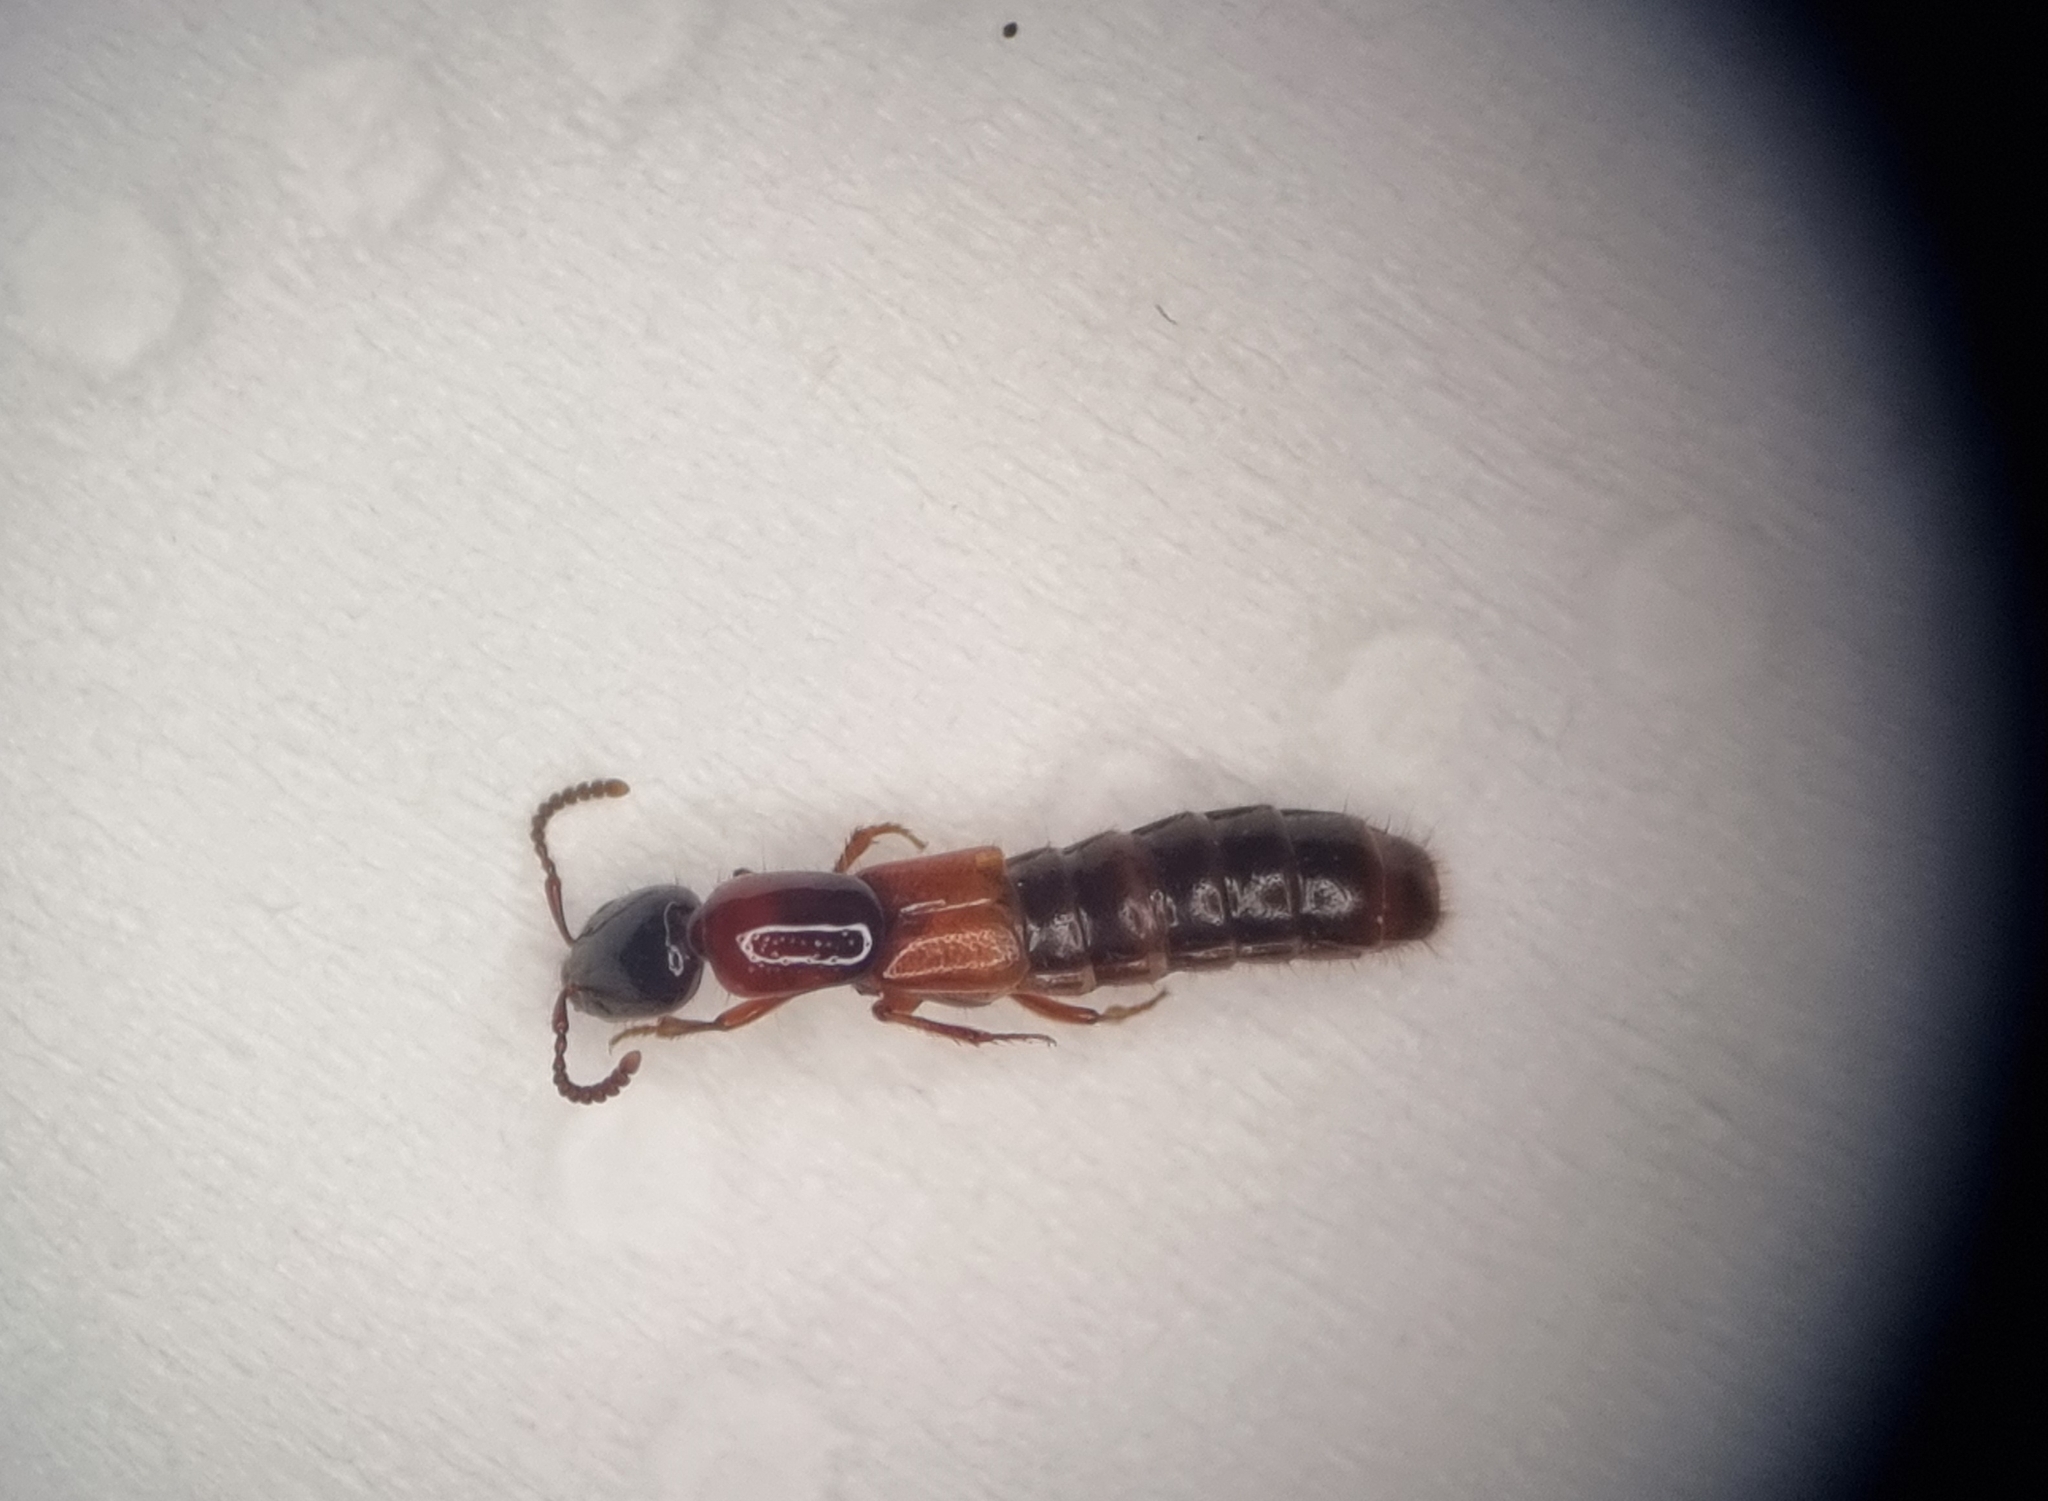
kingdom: Animalia
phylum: Arthropoda
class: Insecta
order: Coleoptera
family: Staphylinidae
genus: Xantholinus
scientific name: Xantholinus tricolor
